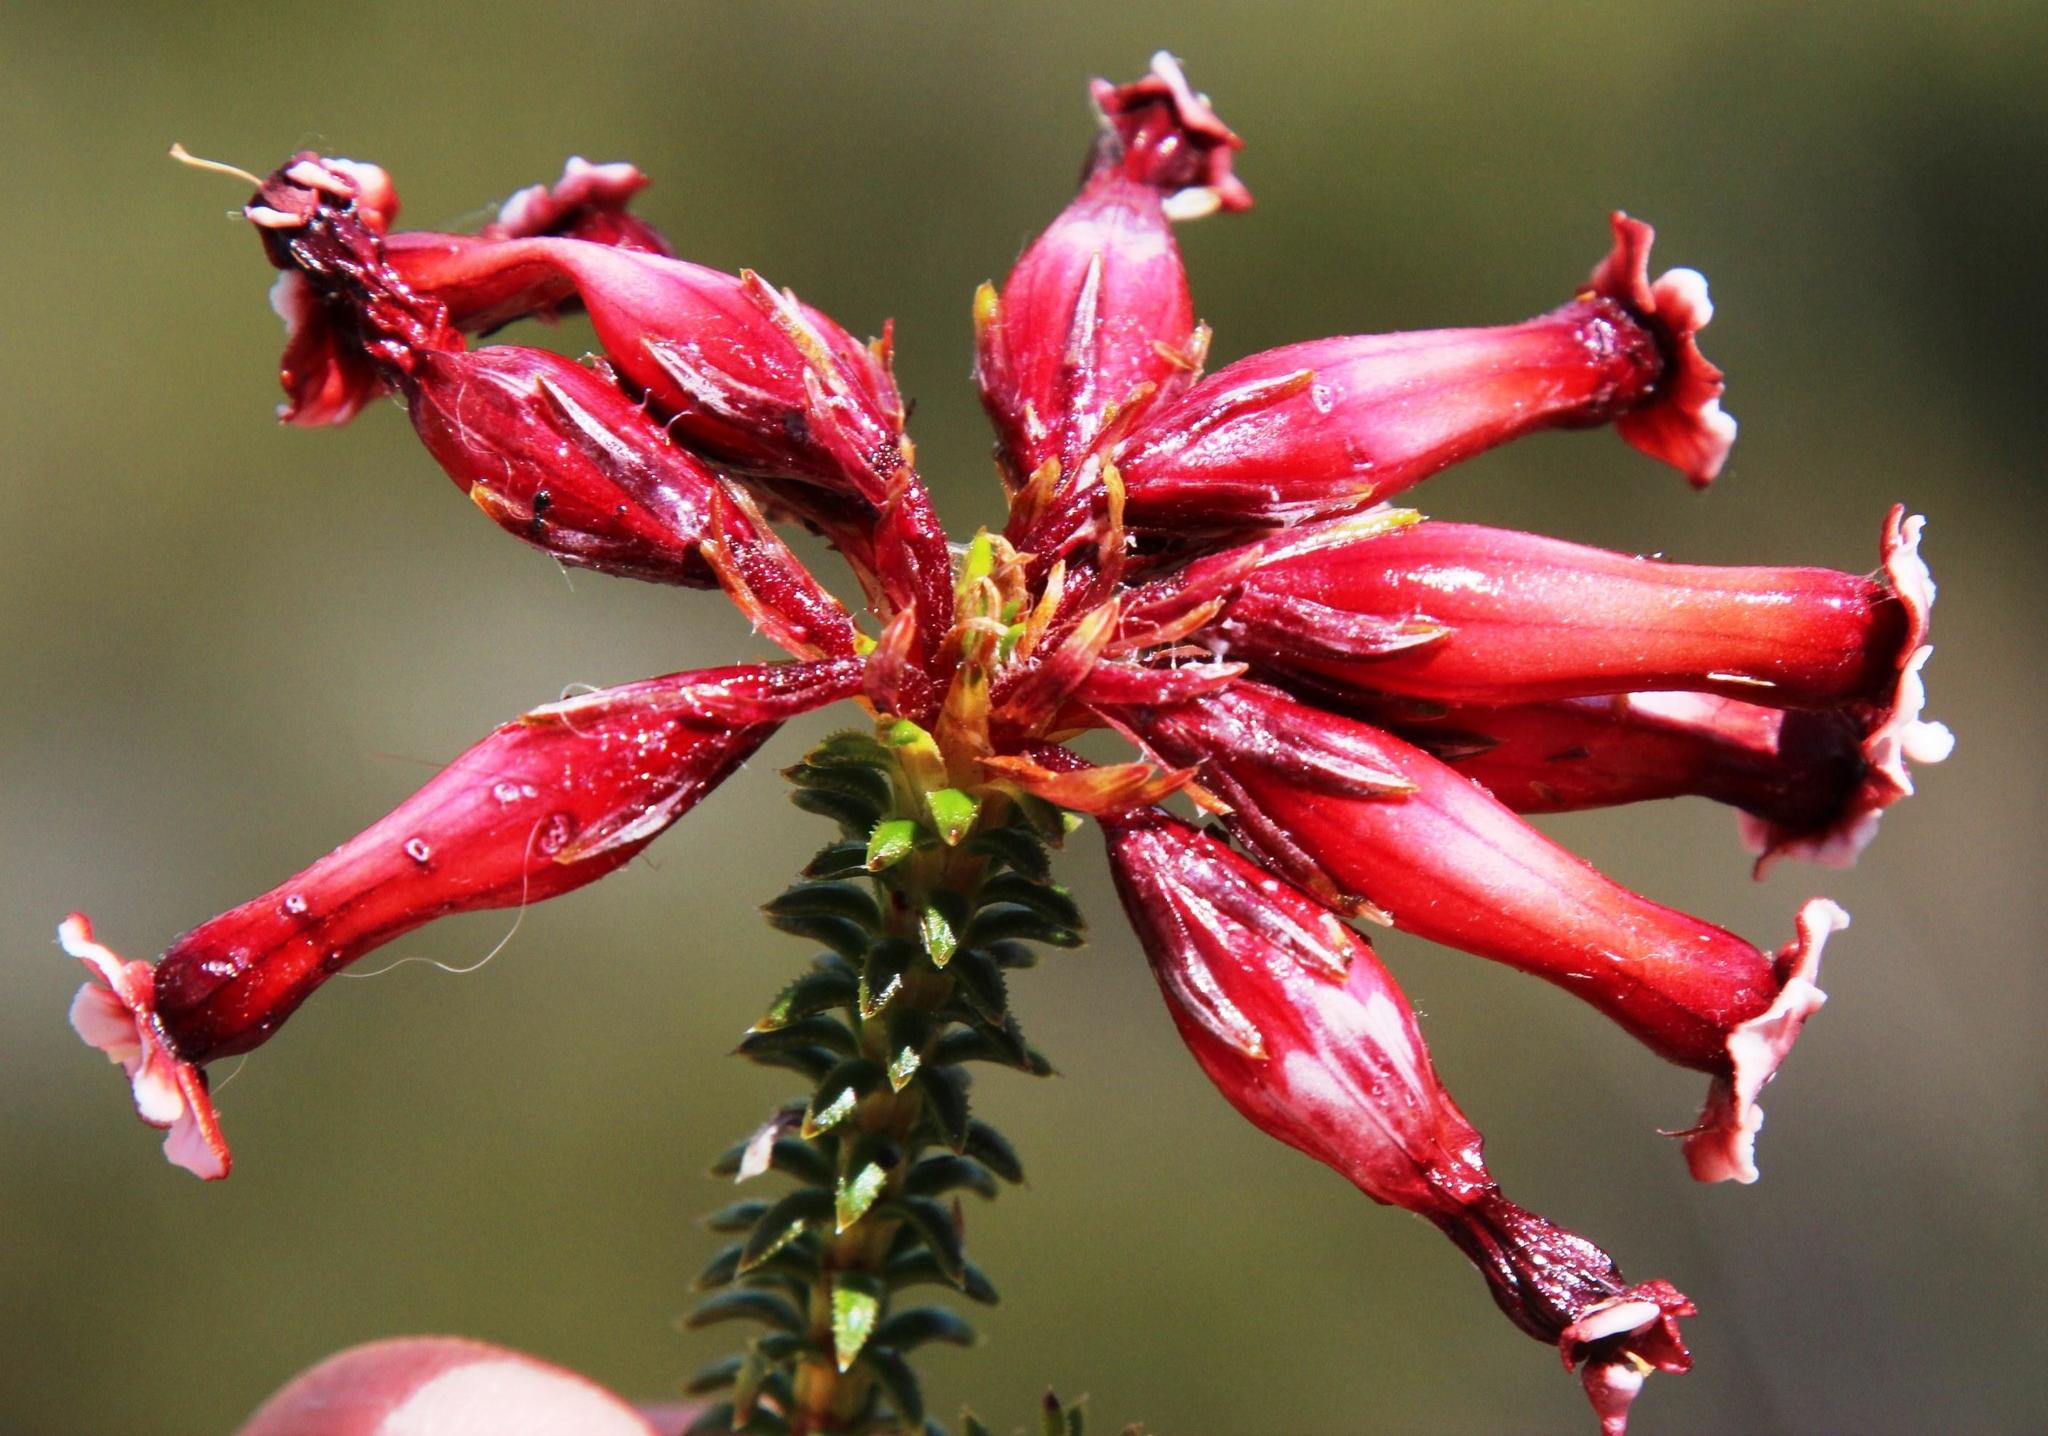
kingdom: Plantae
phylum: Tracheophyta
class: Magnoliopsida
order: Ericales
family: Ericaceae
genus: Erica
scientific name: Erica aristata
